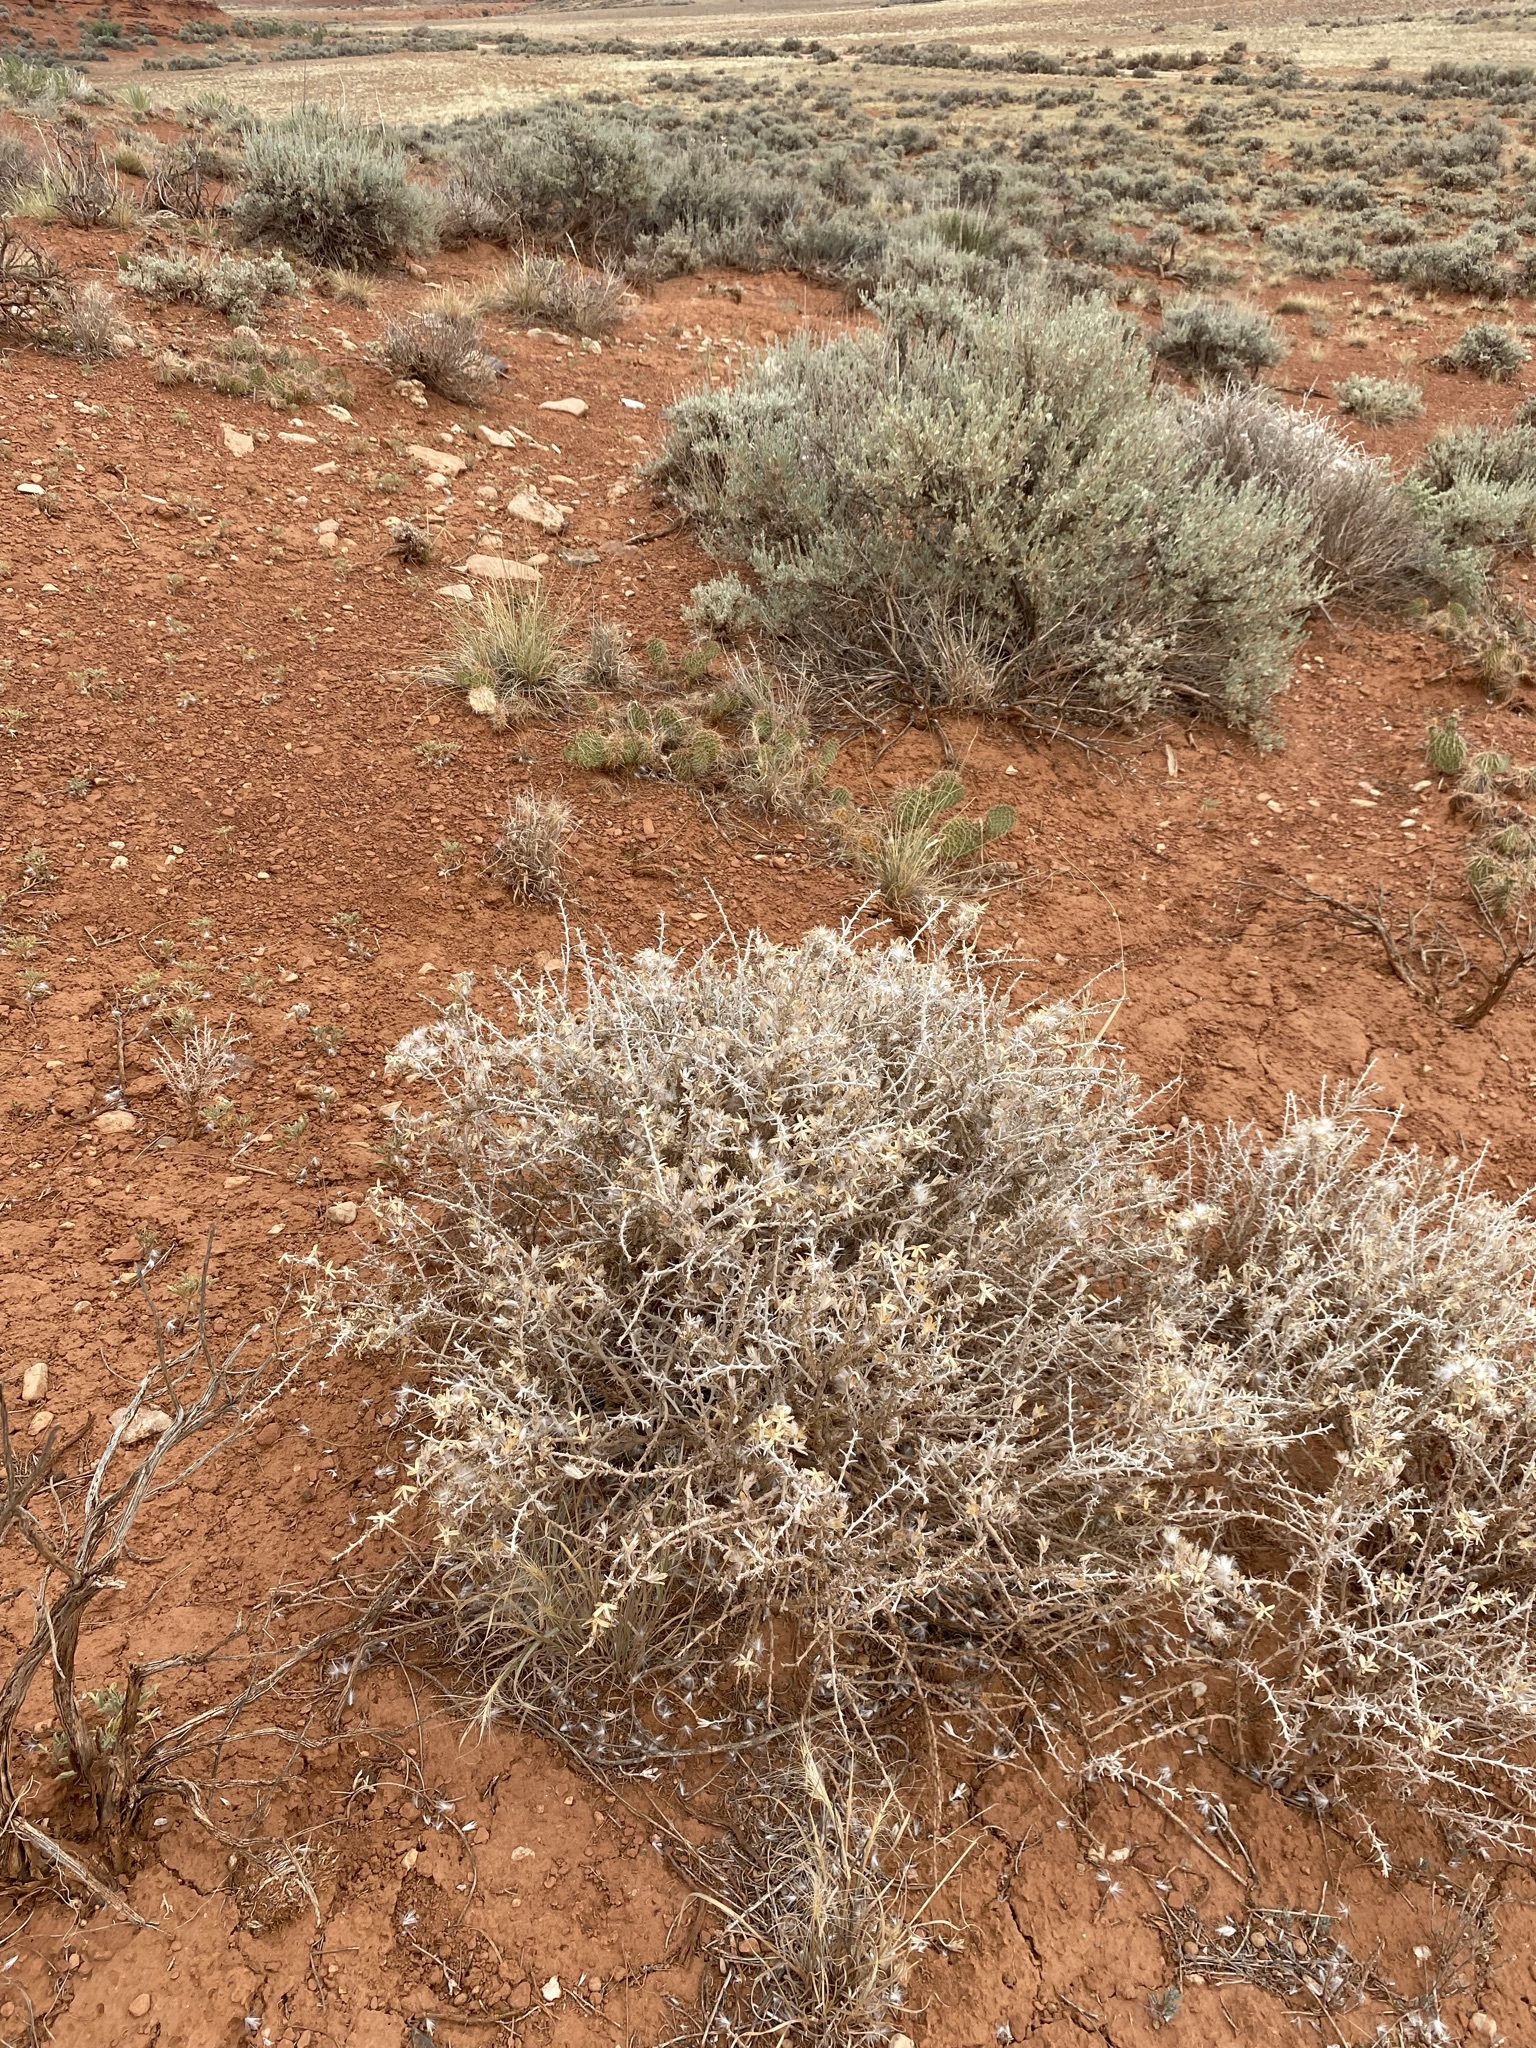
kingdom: Plantae
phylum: Tracheophyta
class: Magnoliopsida
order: Asterales
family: Asteraceae
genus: Tetradymia
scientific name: Tetradymia spinosa
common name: Thorny horsebrush
